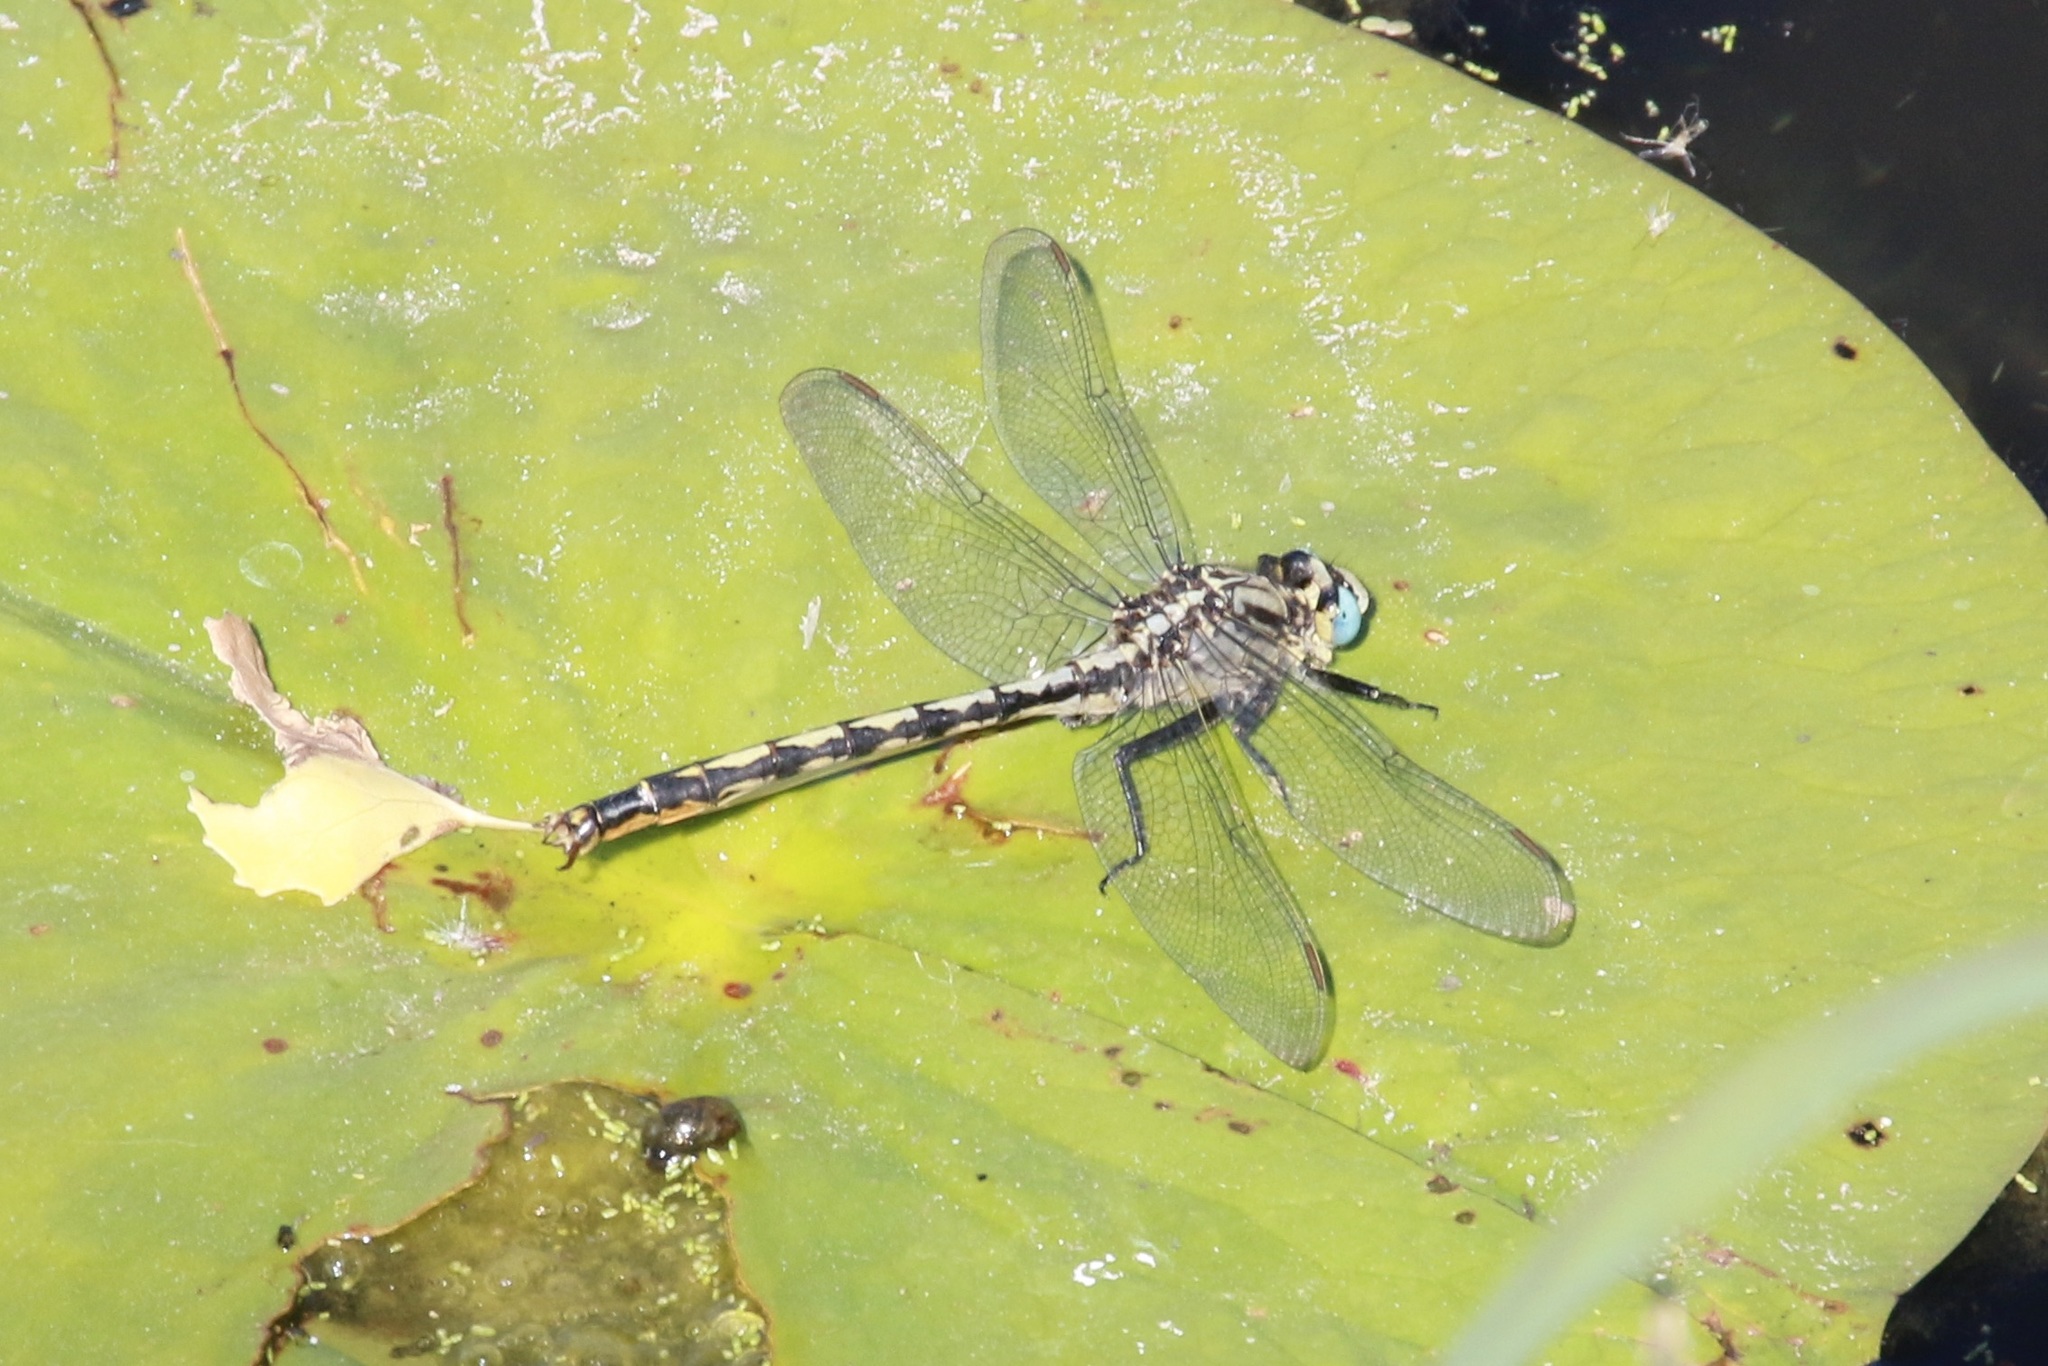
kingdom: Animalia
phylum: Arthropoda
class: Insecta
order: Odonata
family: Gomphidae
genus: Arigomphus
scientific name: Arigomphus cornutus
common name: Horned clubtail
